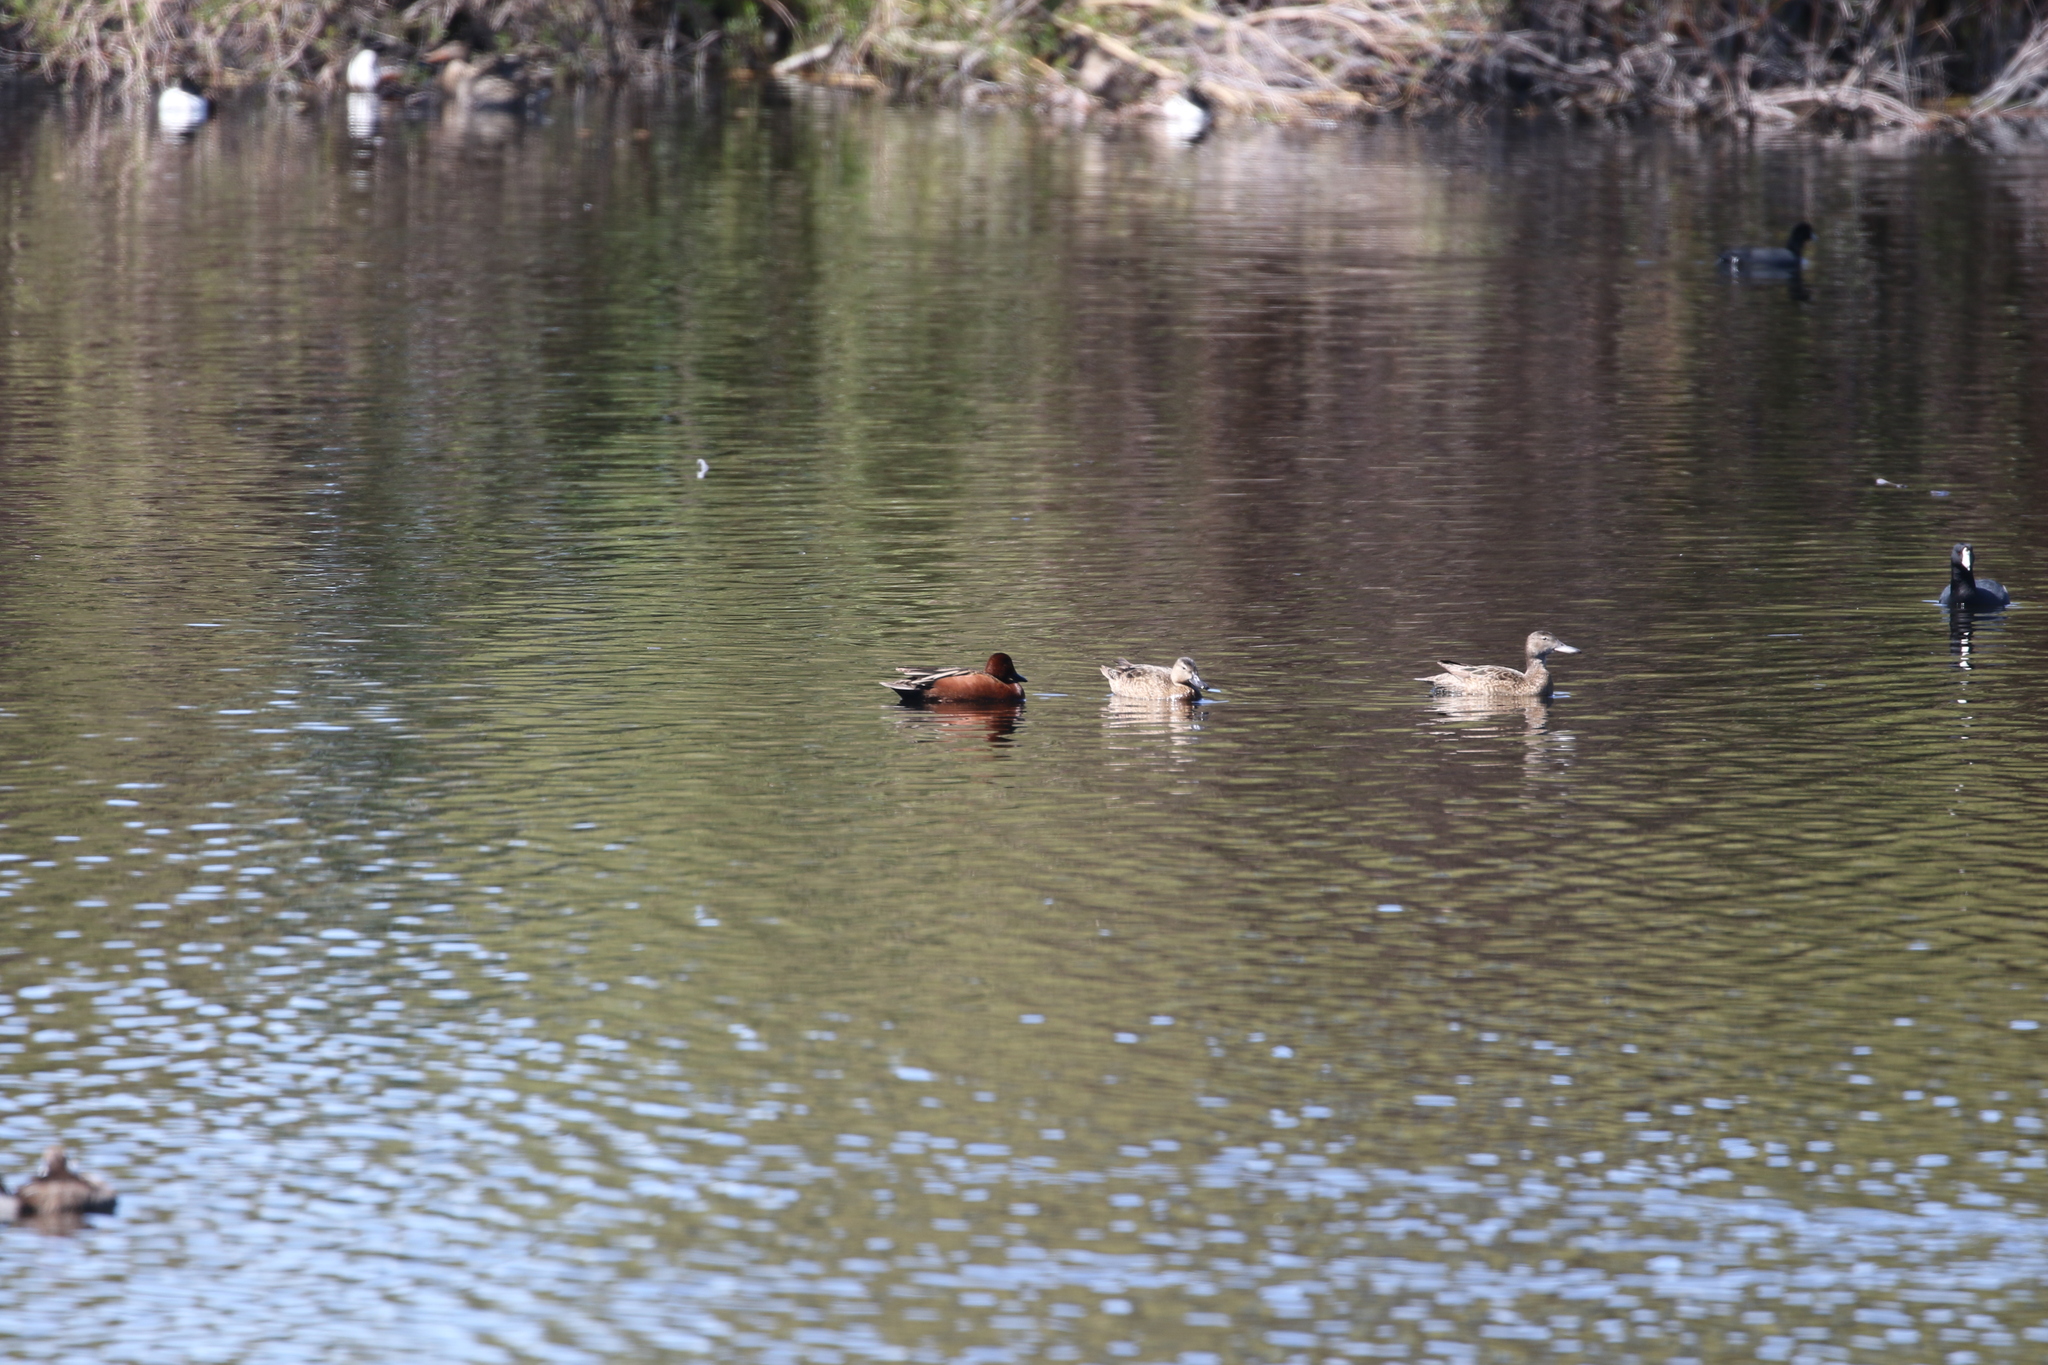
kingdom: Animalia
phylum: Chordata
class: Aves
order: Anseriformes
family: Anatidae
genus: Spatula
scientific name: Spatula cyanoptera
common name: Cinnamon teal
